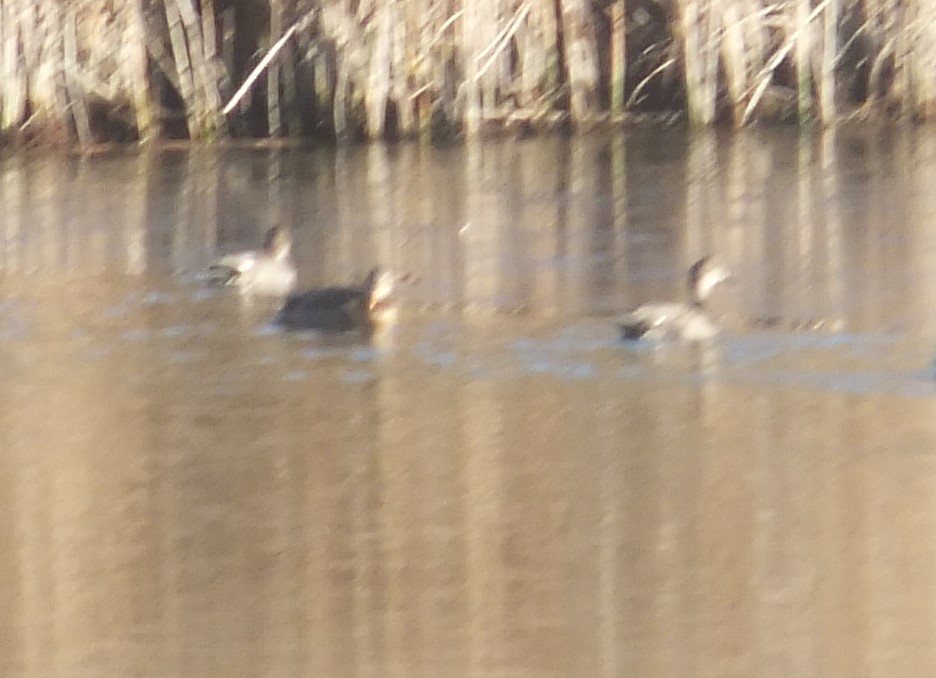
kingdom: Animalia
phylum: Chordata
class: Aves
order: Anseriformes
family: Anatidae
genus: Mareca
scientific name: Mareca strepera
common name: Gadwall
